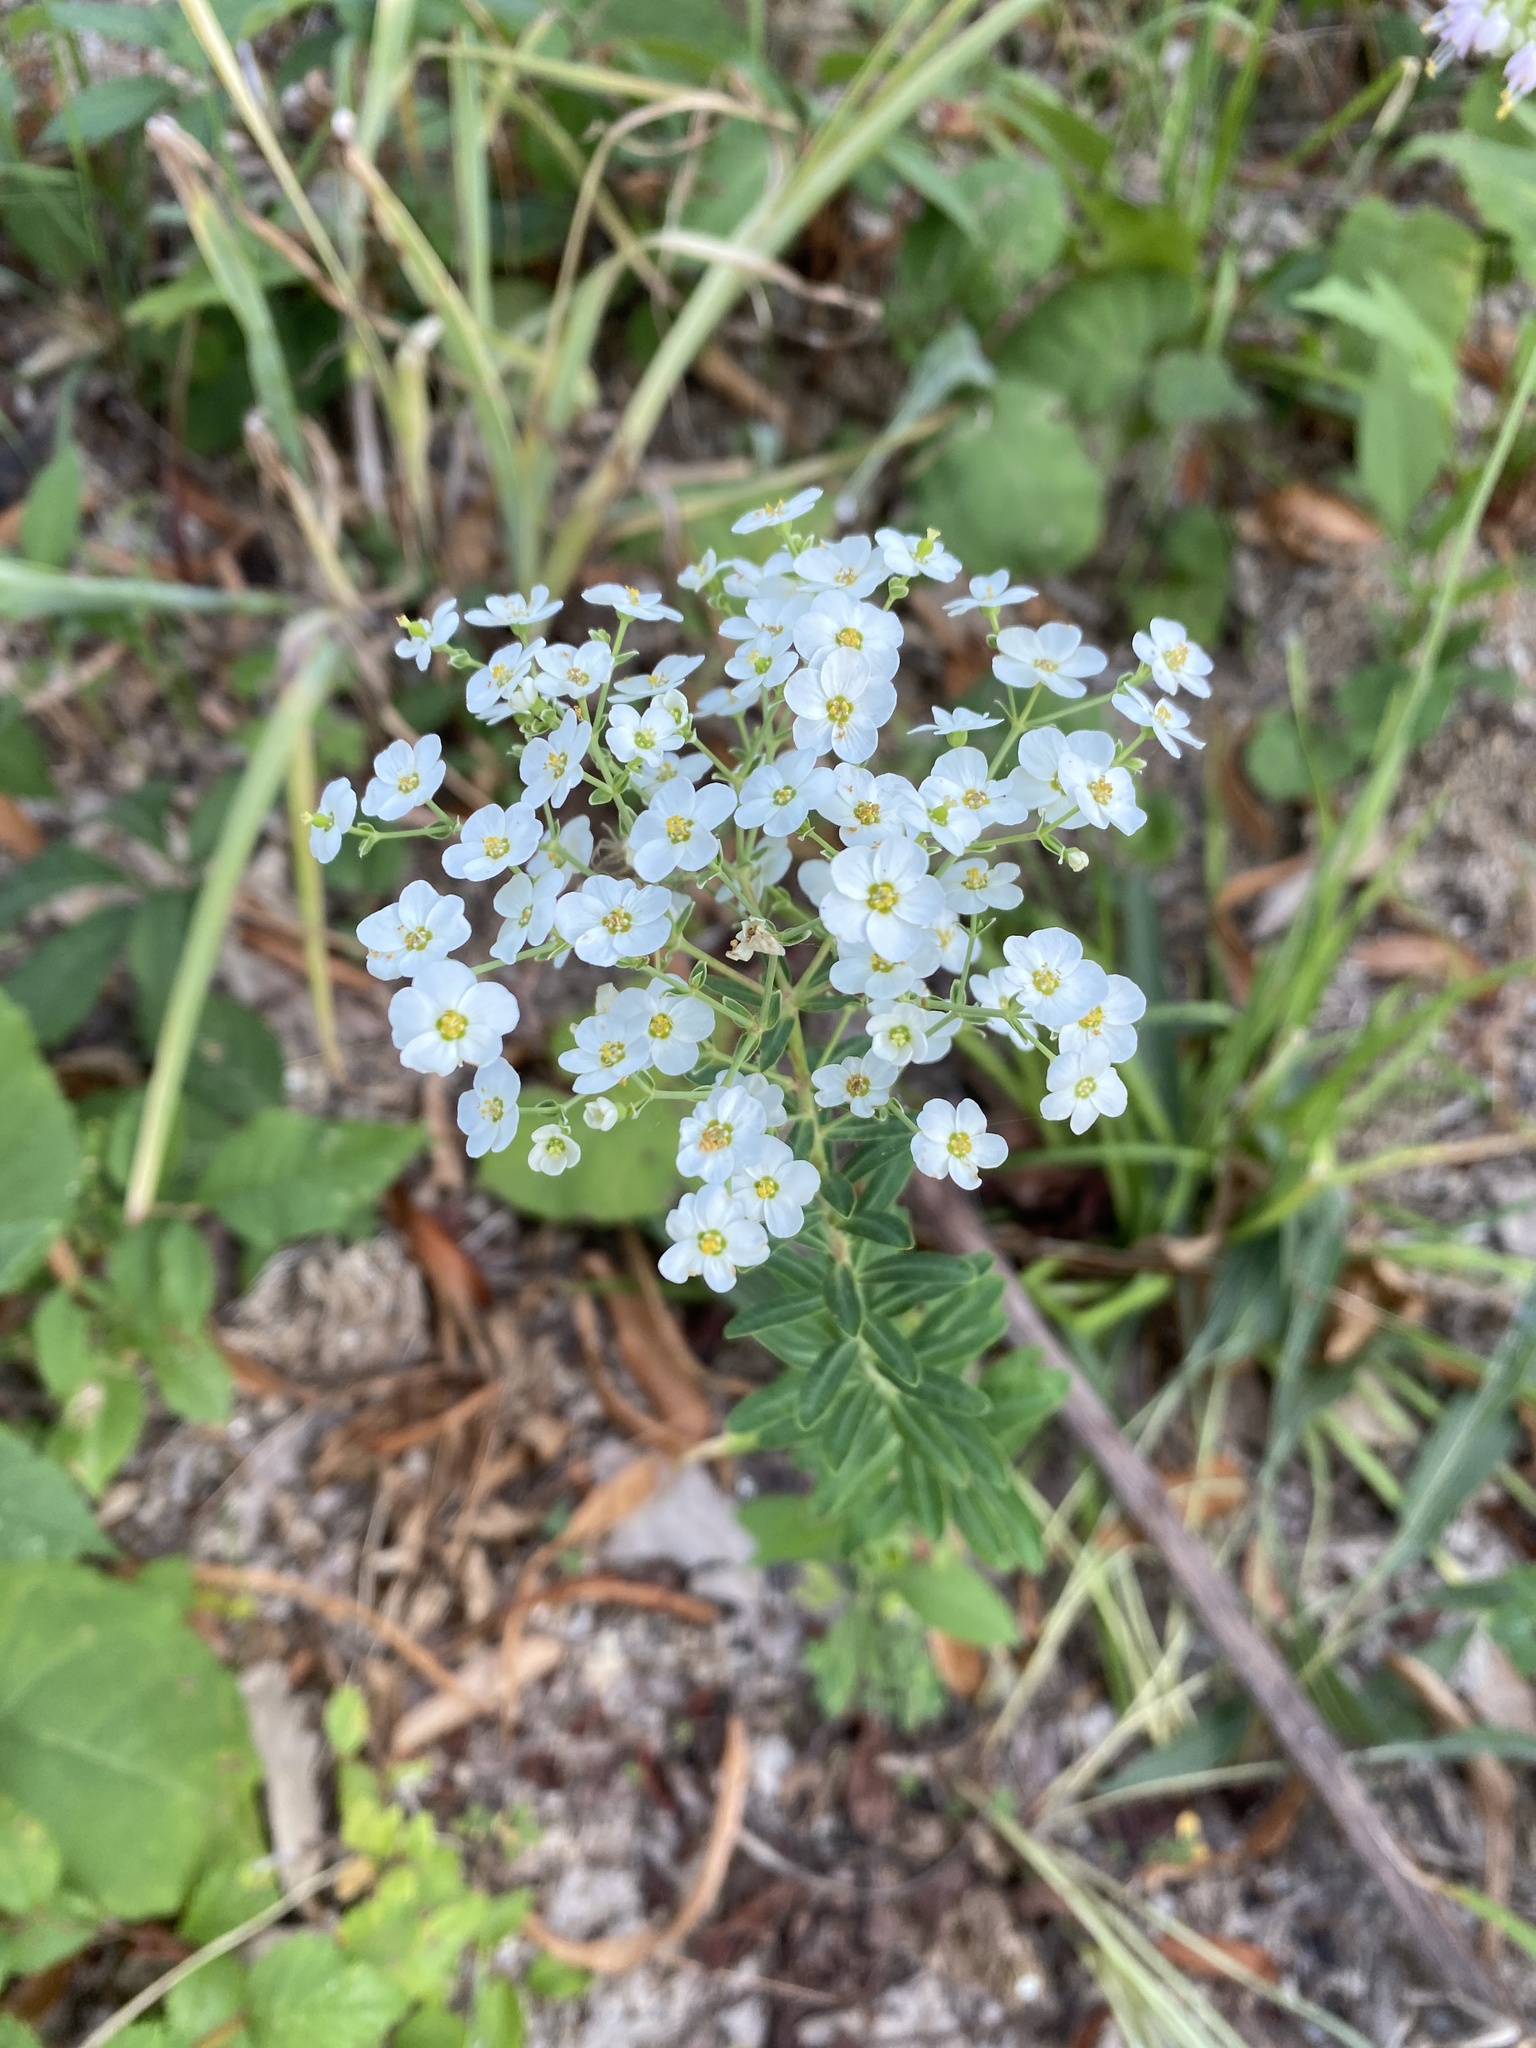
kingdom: Plantae
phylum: Tracheophyta
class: Magnoliopsida
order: Malpighiales
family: Euphorbiaceae
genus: Euphorbia
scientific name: Euphorbia corollata
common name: Flowering spurge
